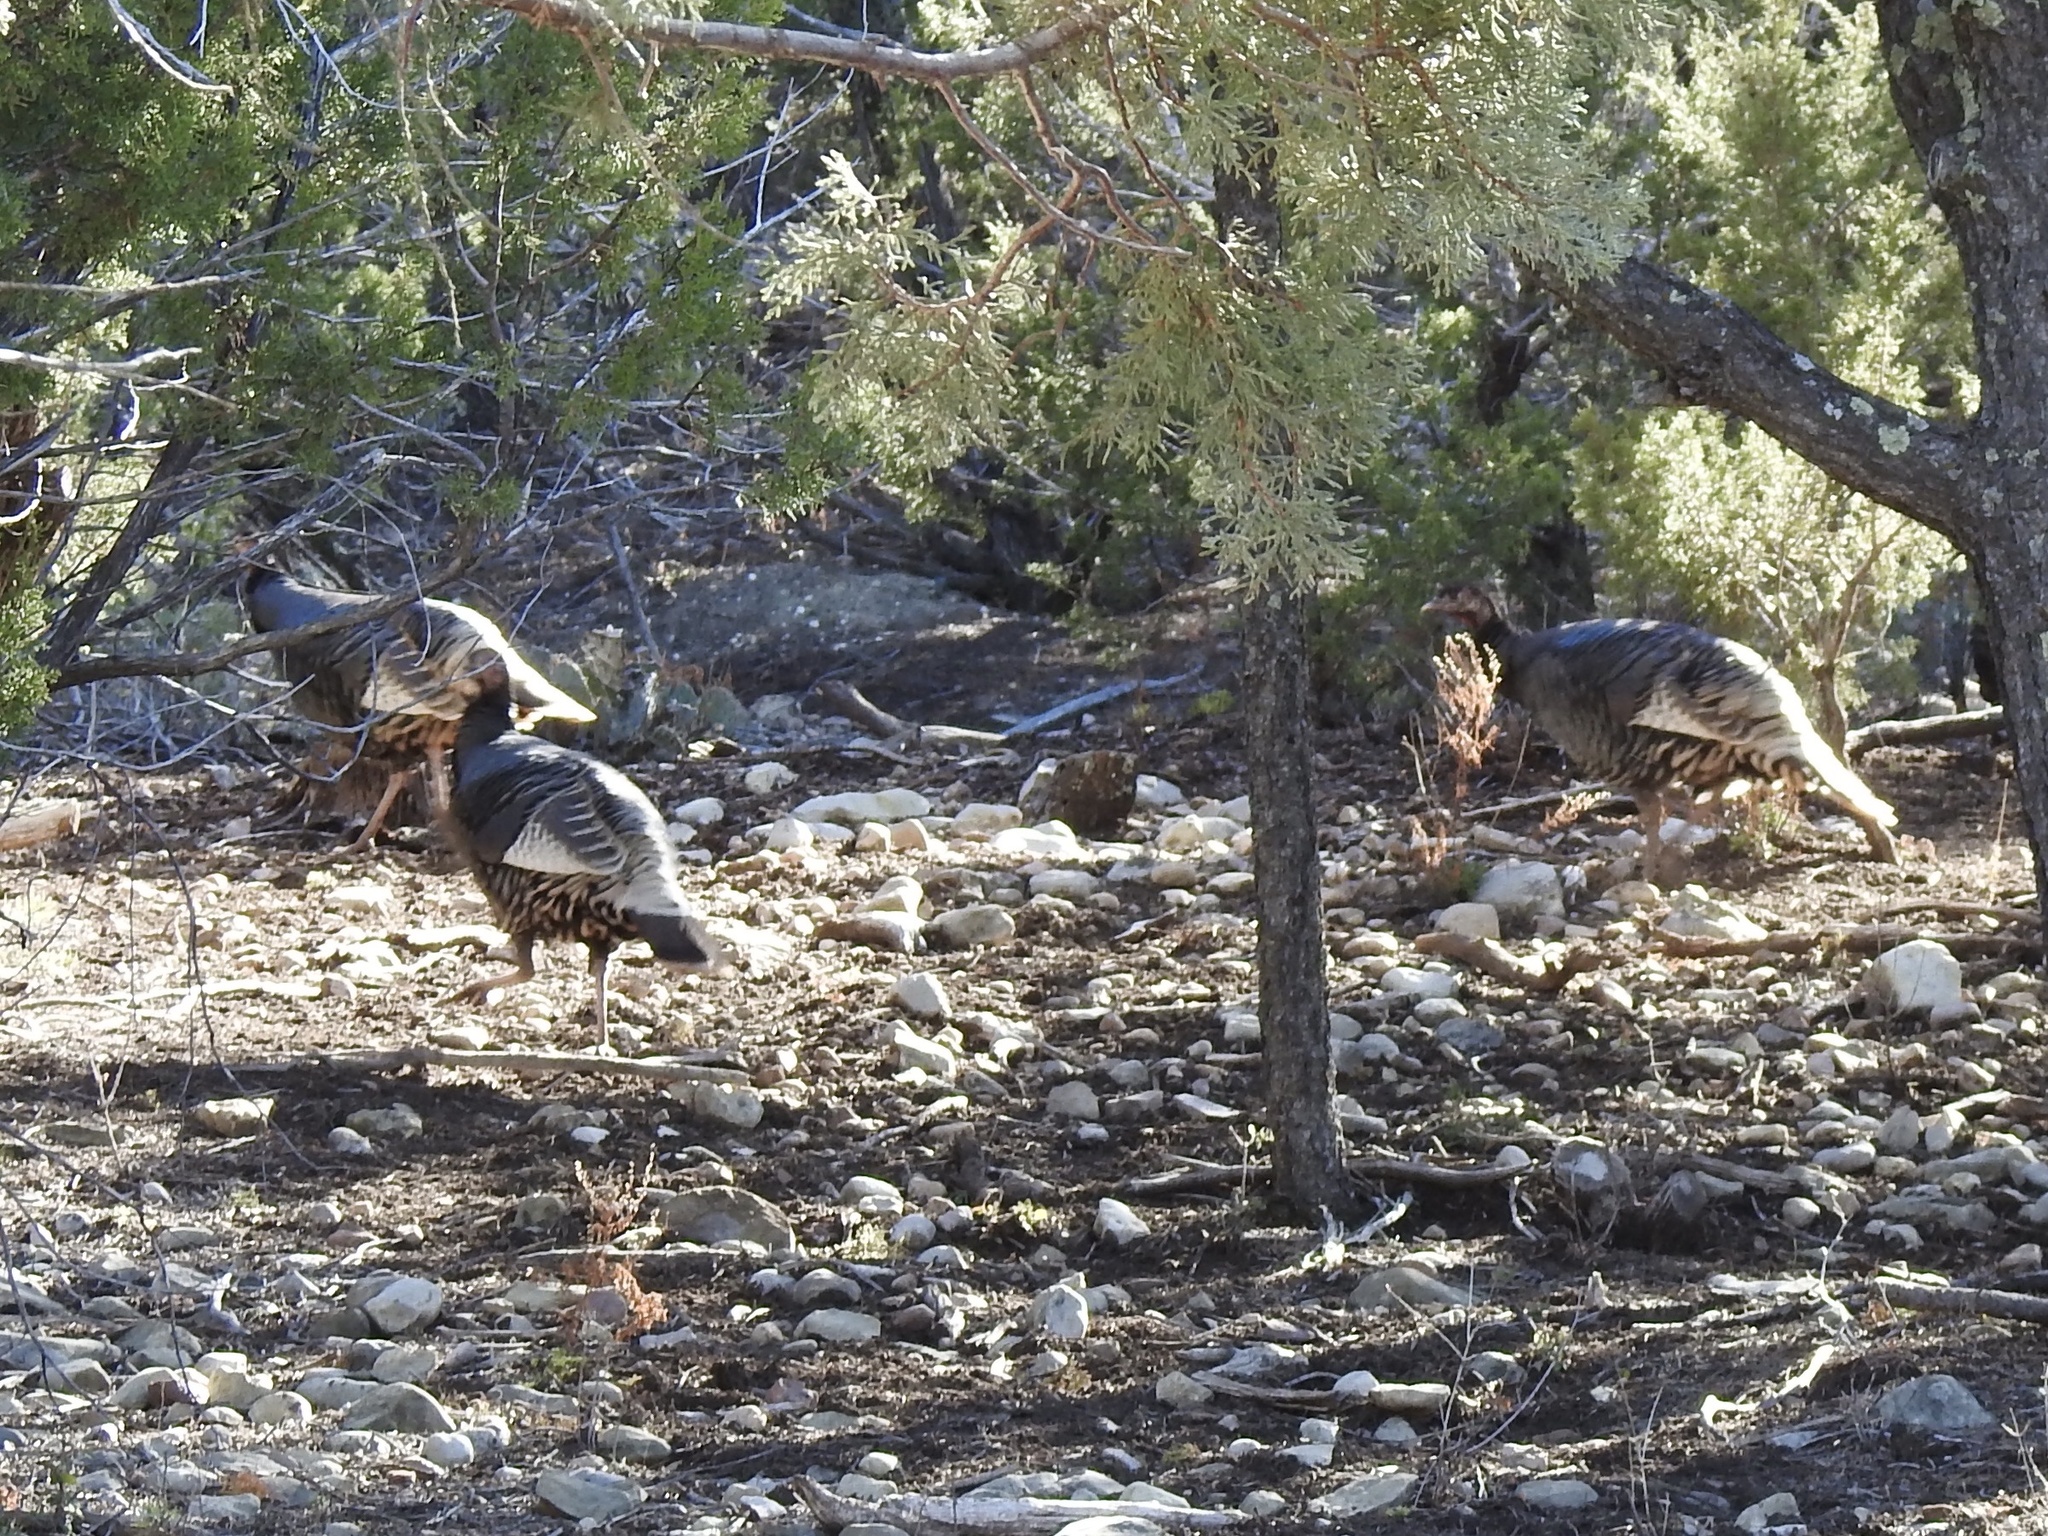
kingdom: Animalia
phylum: Chordata
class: Aves
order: Galliformes
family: Phasianidae
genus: Meleagris
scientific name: Meleagris gallopavo
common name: Wild turkey
